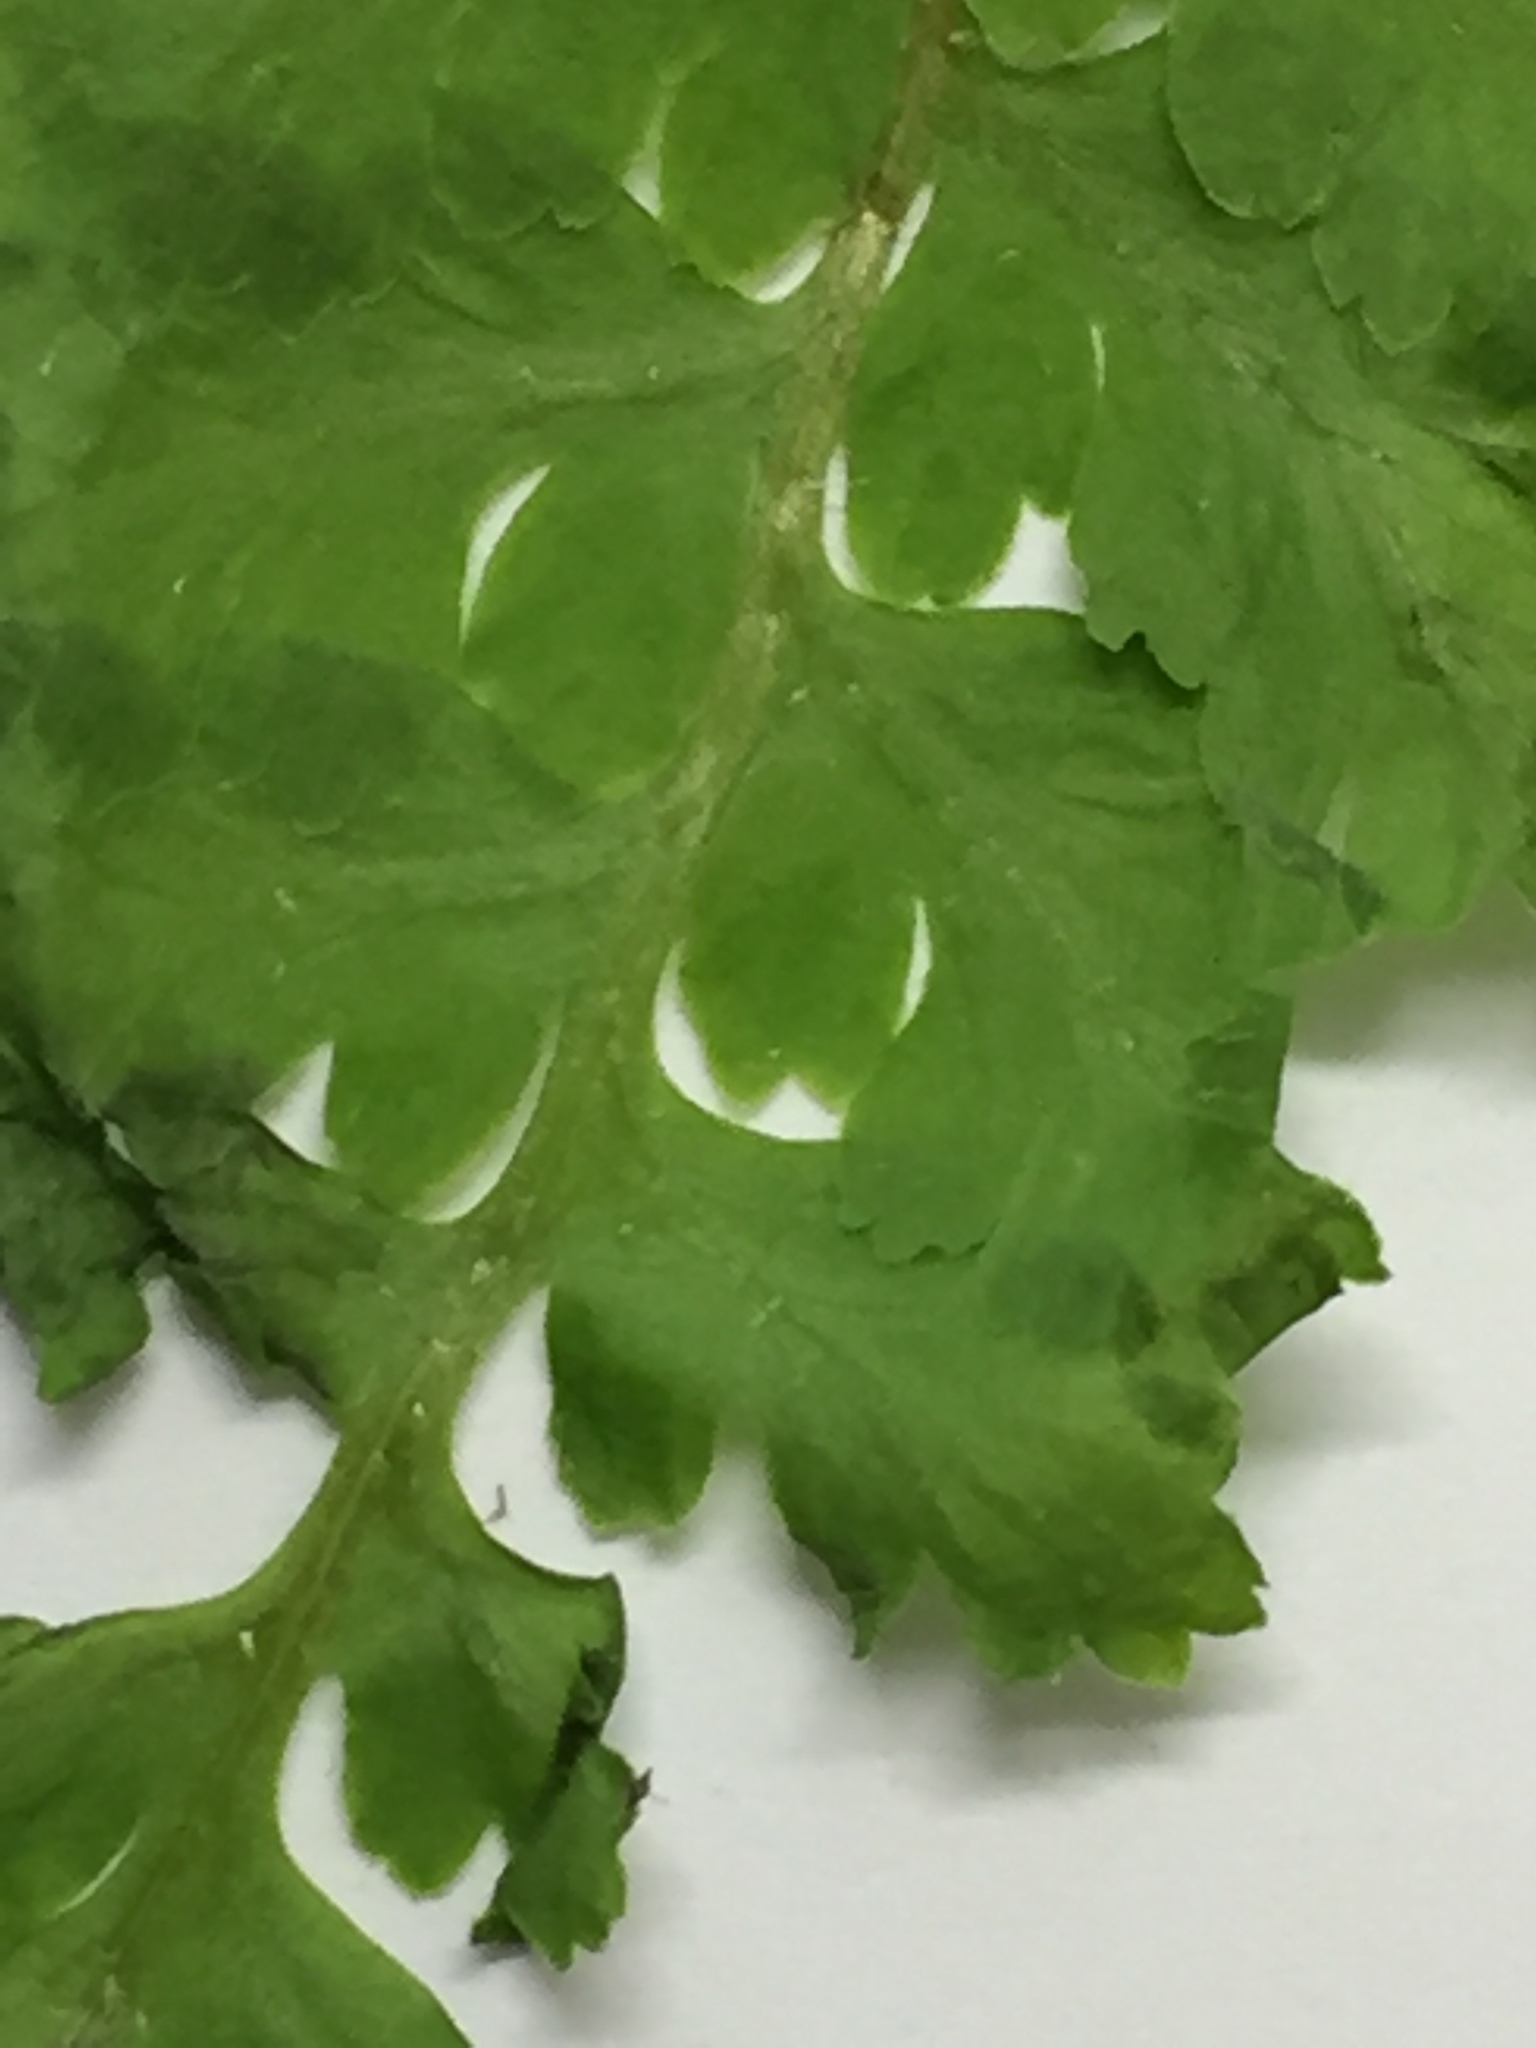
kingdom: Plantae
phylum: Tracheophyta
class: Polypodiopsida
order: Polypodiales
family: Cystopteridaceae
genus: Cystopteris
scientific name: Cystopteris tasmanica
